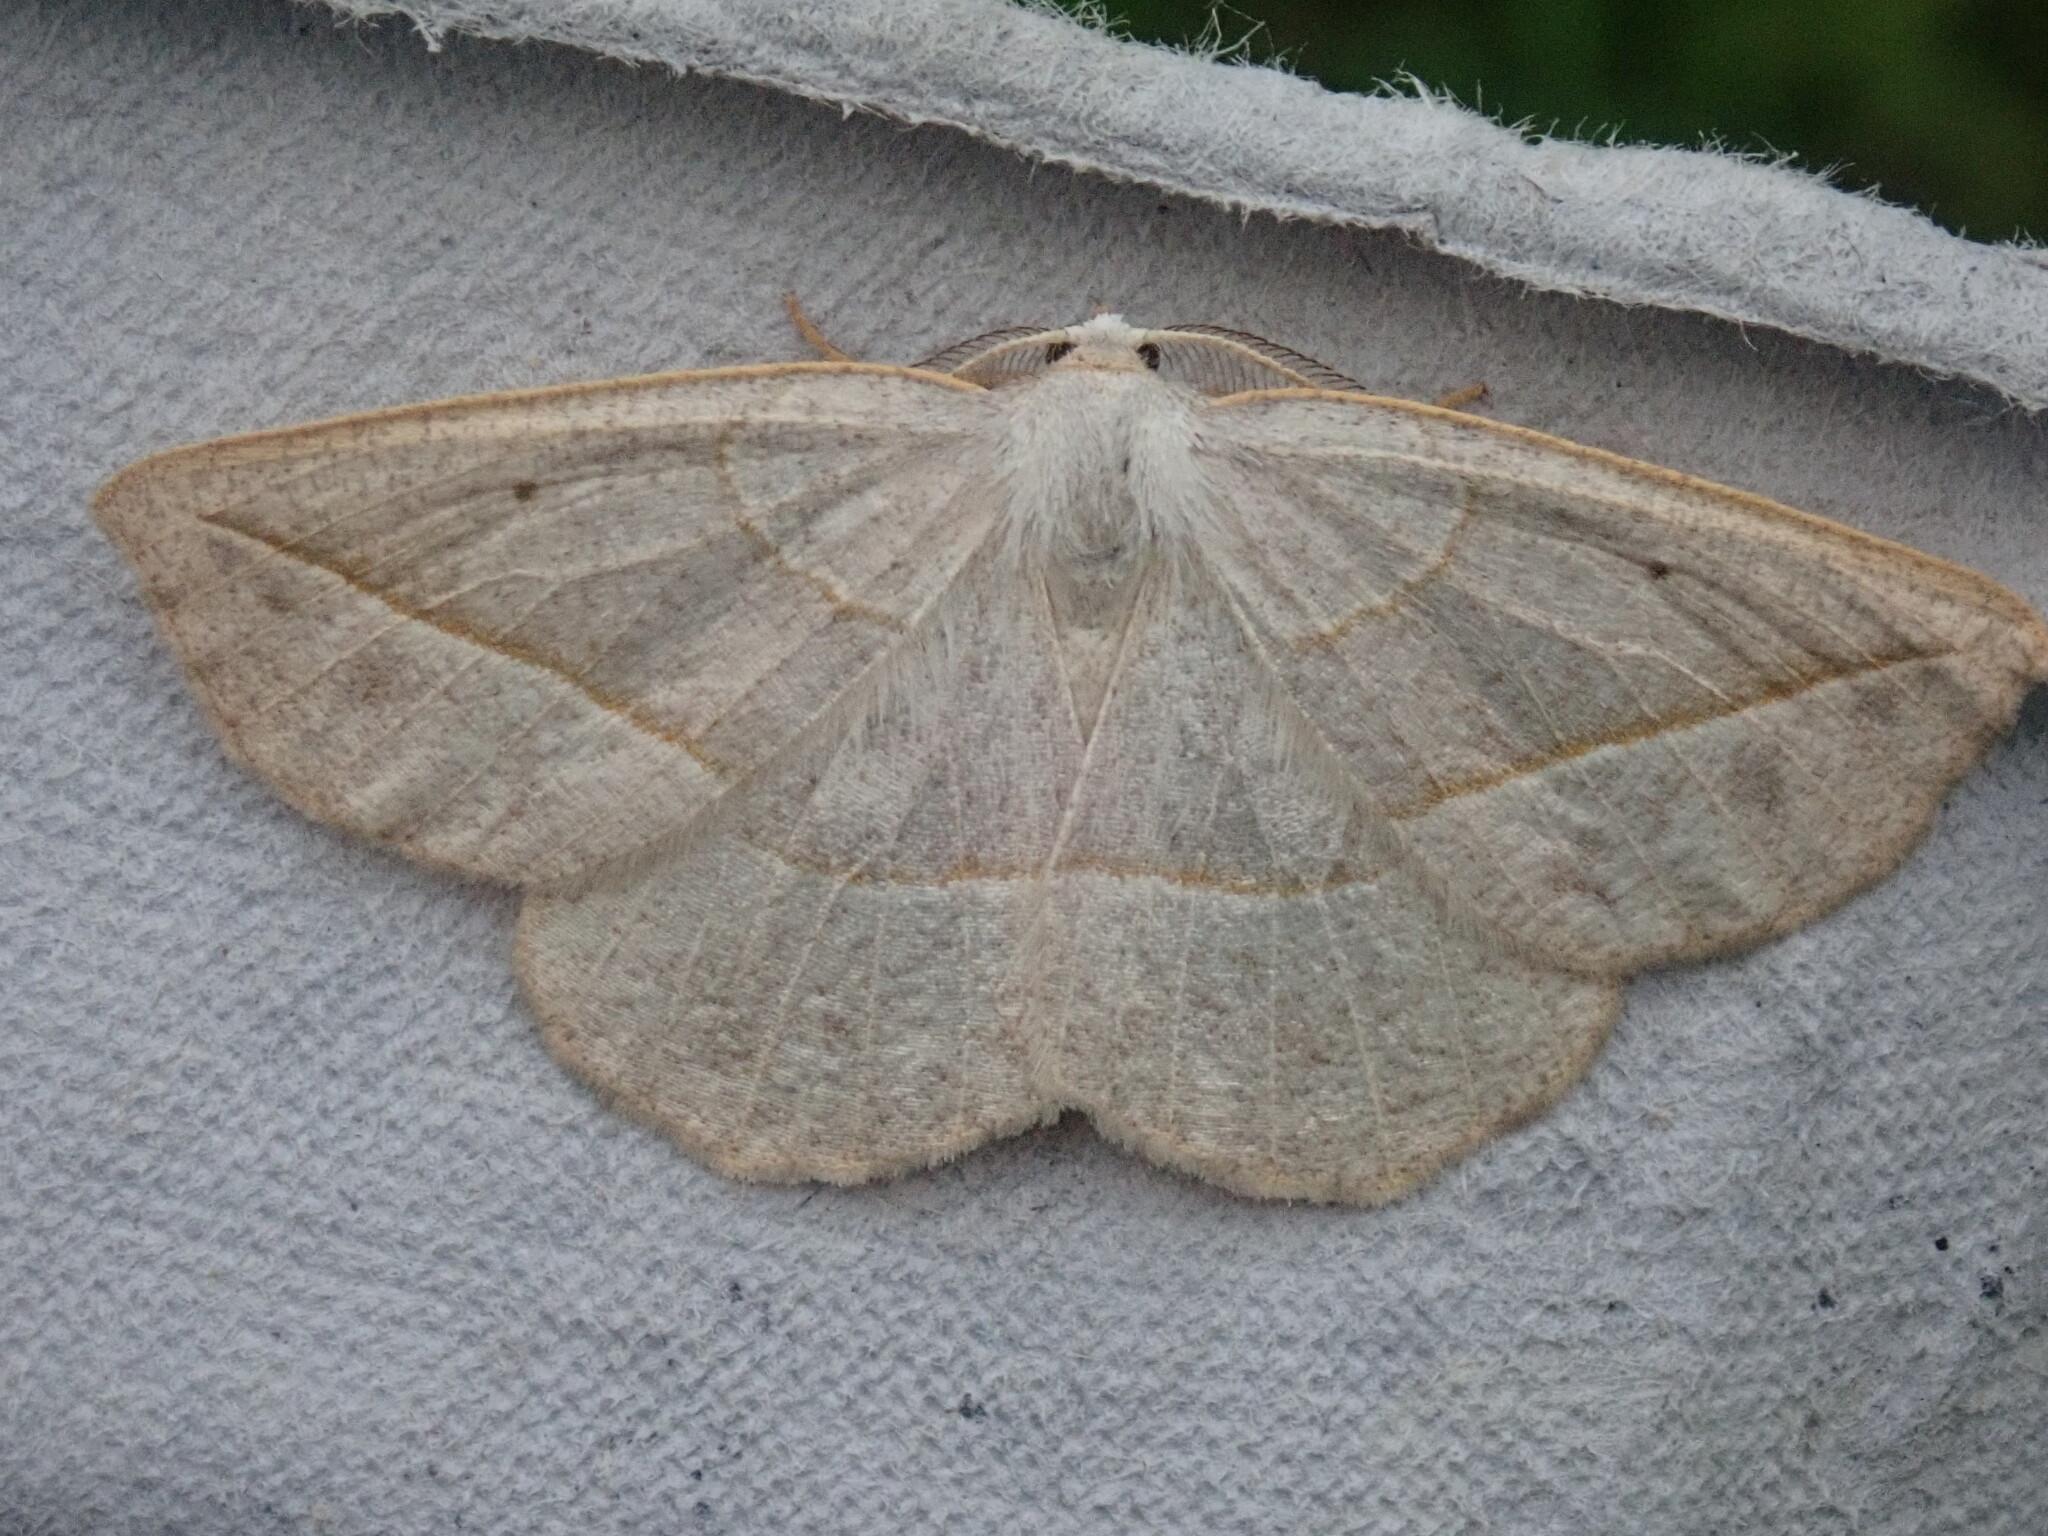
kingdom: Animalia
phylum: Arthropoda
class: Insecta
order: Lepidoptera
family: Geometridae
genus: Eusarca
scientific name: Eusarca confusaria
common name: Confused eusarca
